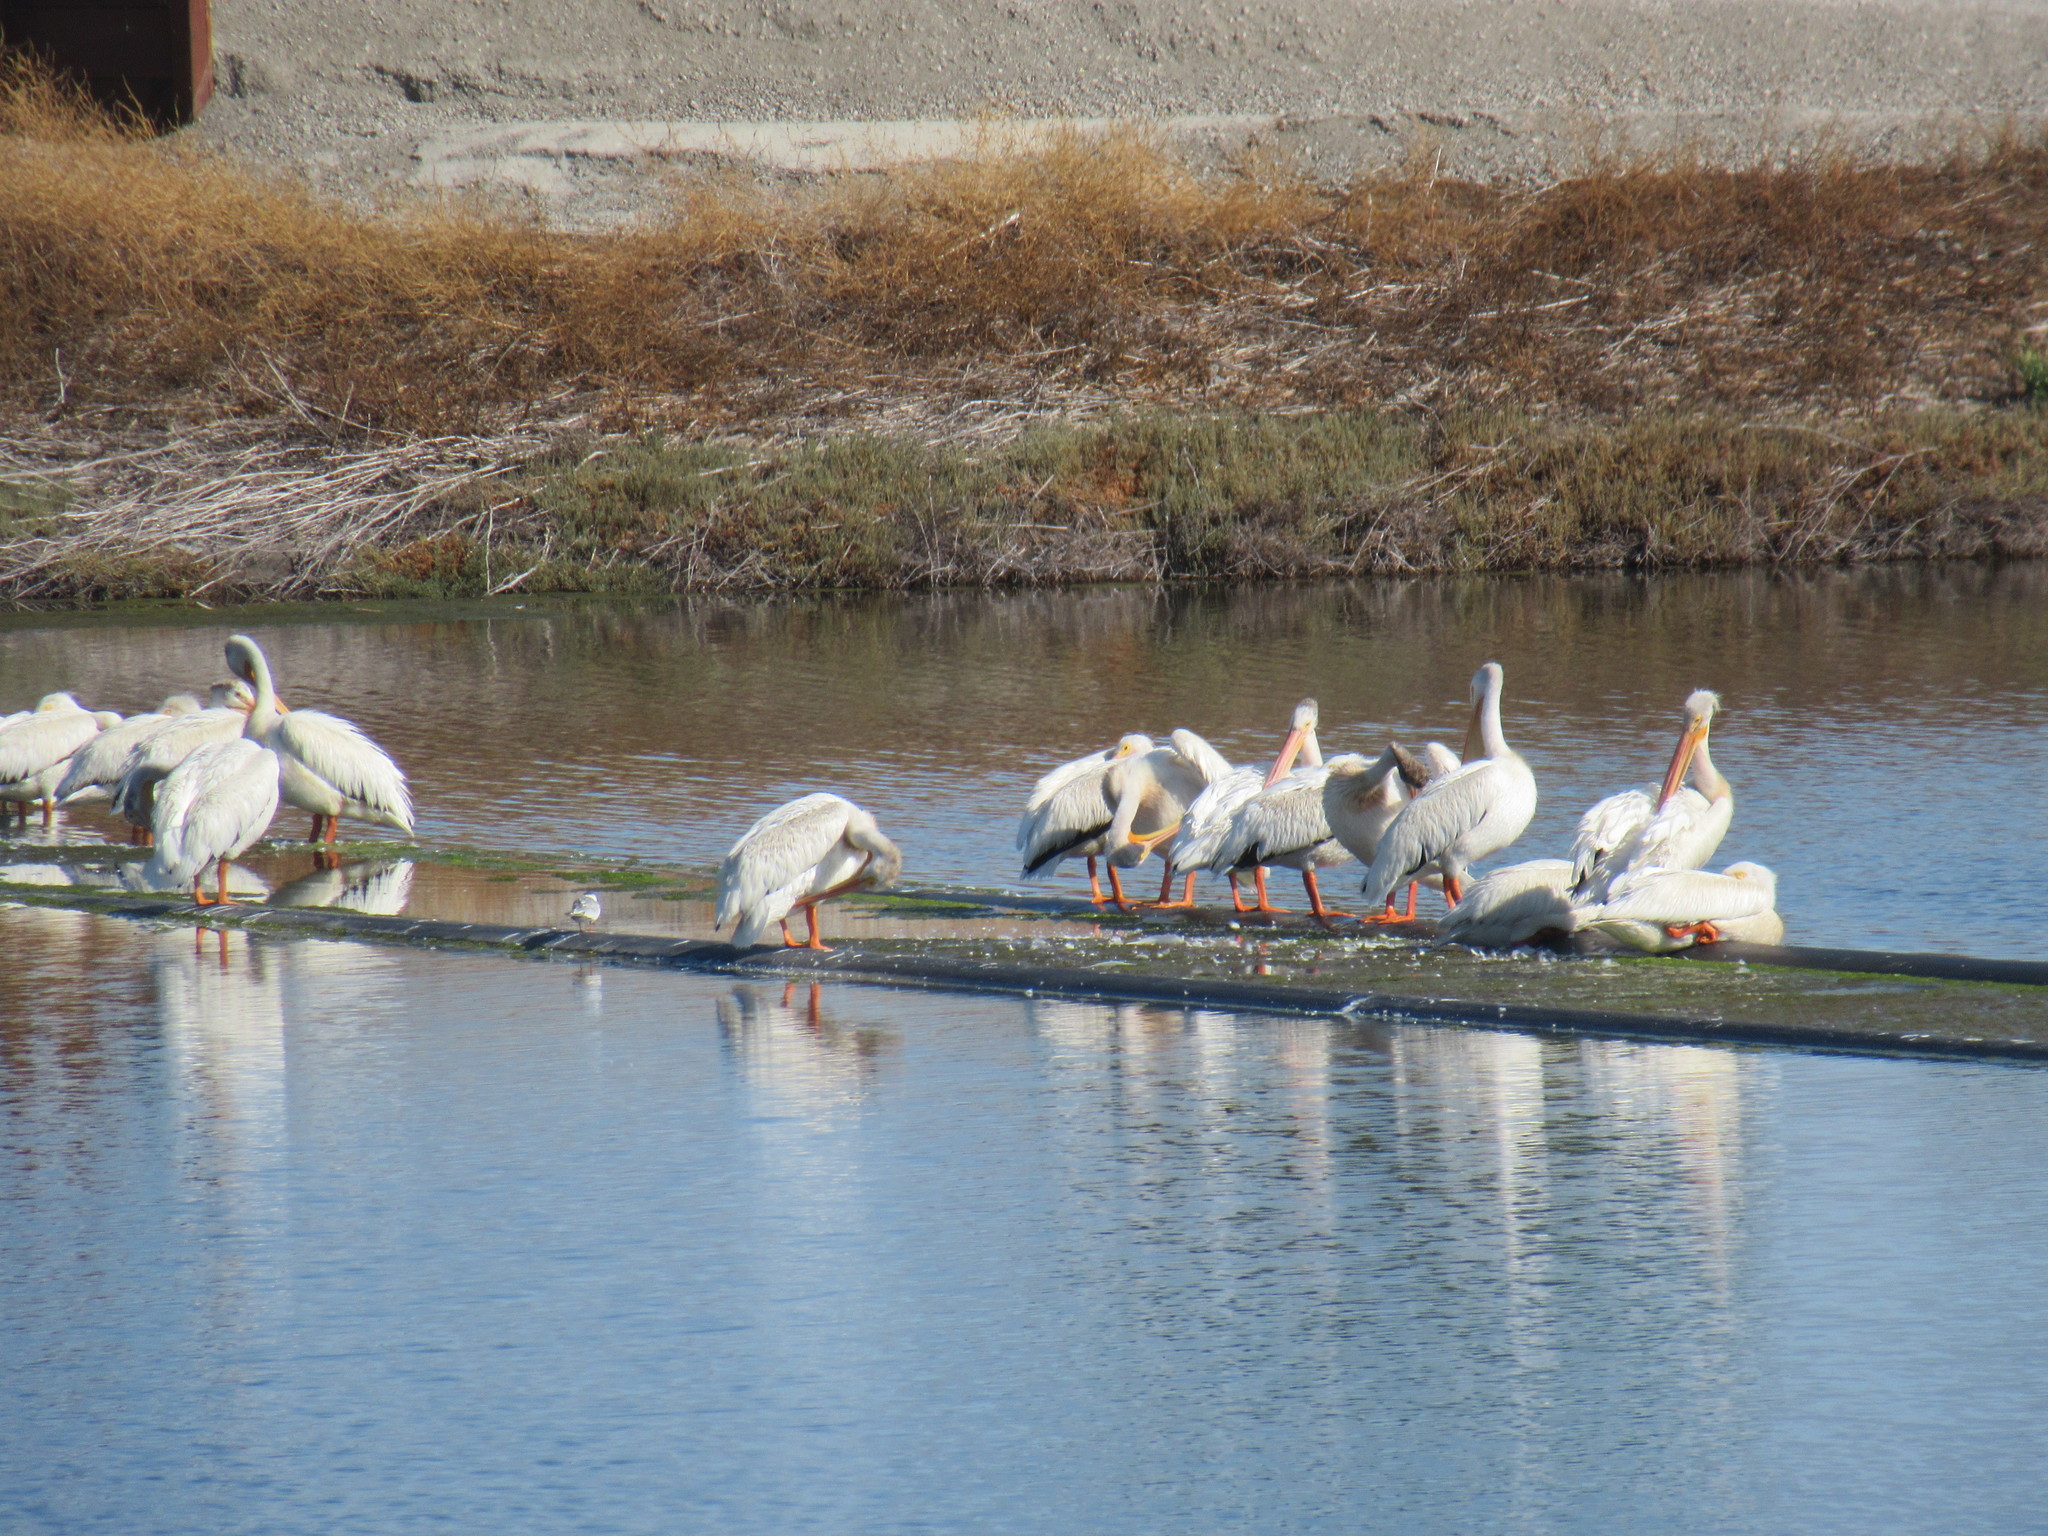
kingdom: Animalia
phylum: Chordata
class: Aves
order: Pelecaniformes
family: Pelecanidae
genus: Pelecanus
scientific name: Pelecanus erythrorhynchos
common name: American white pelican
